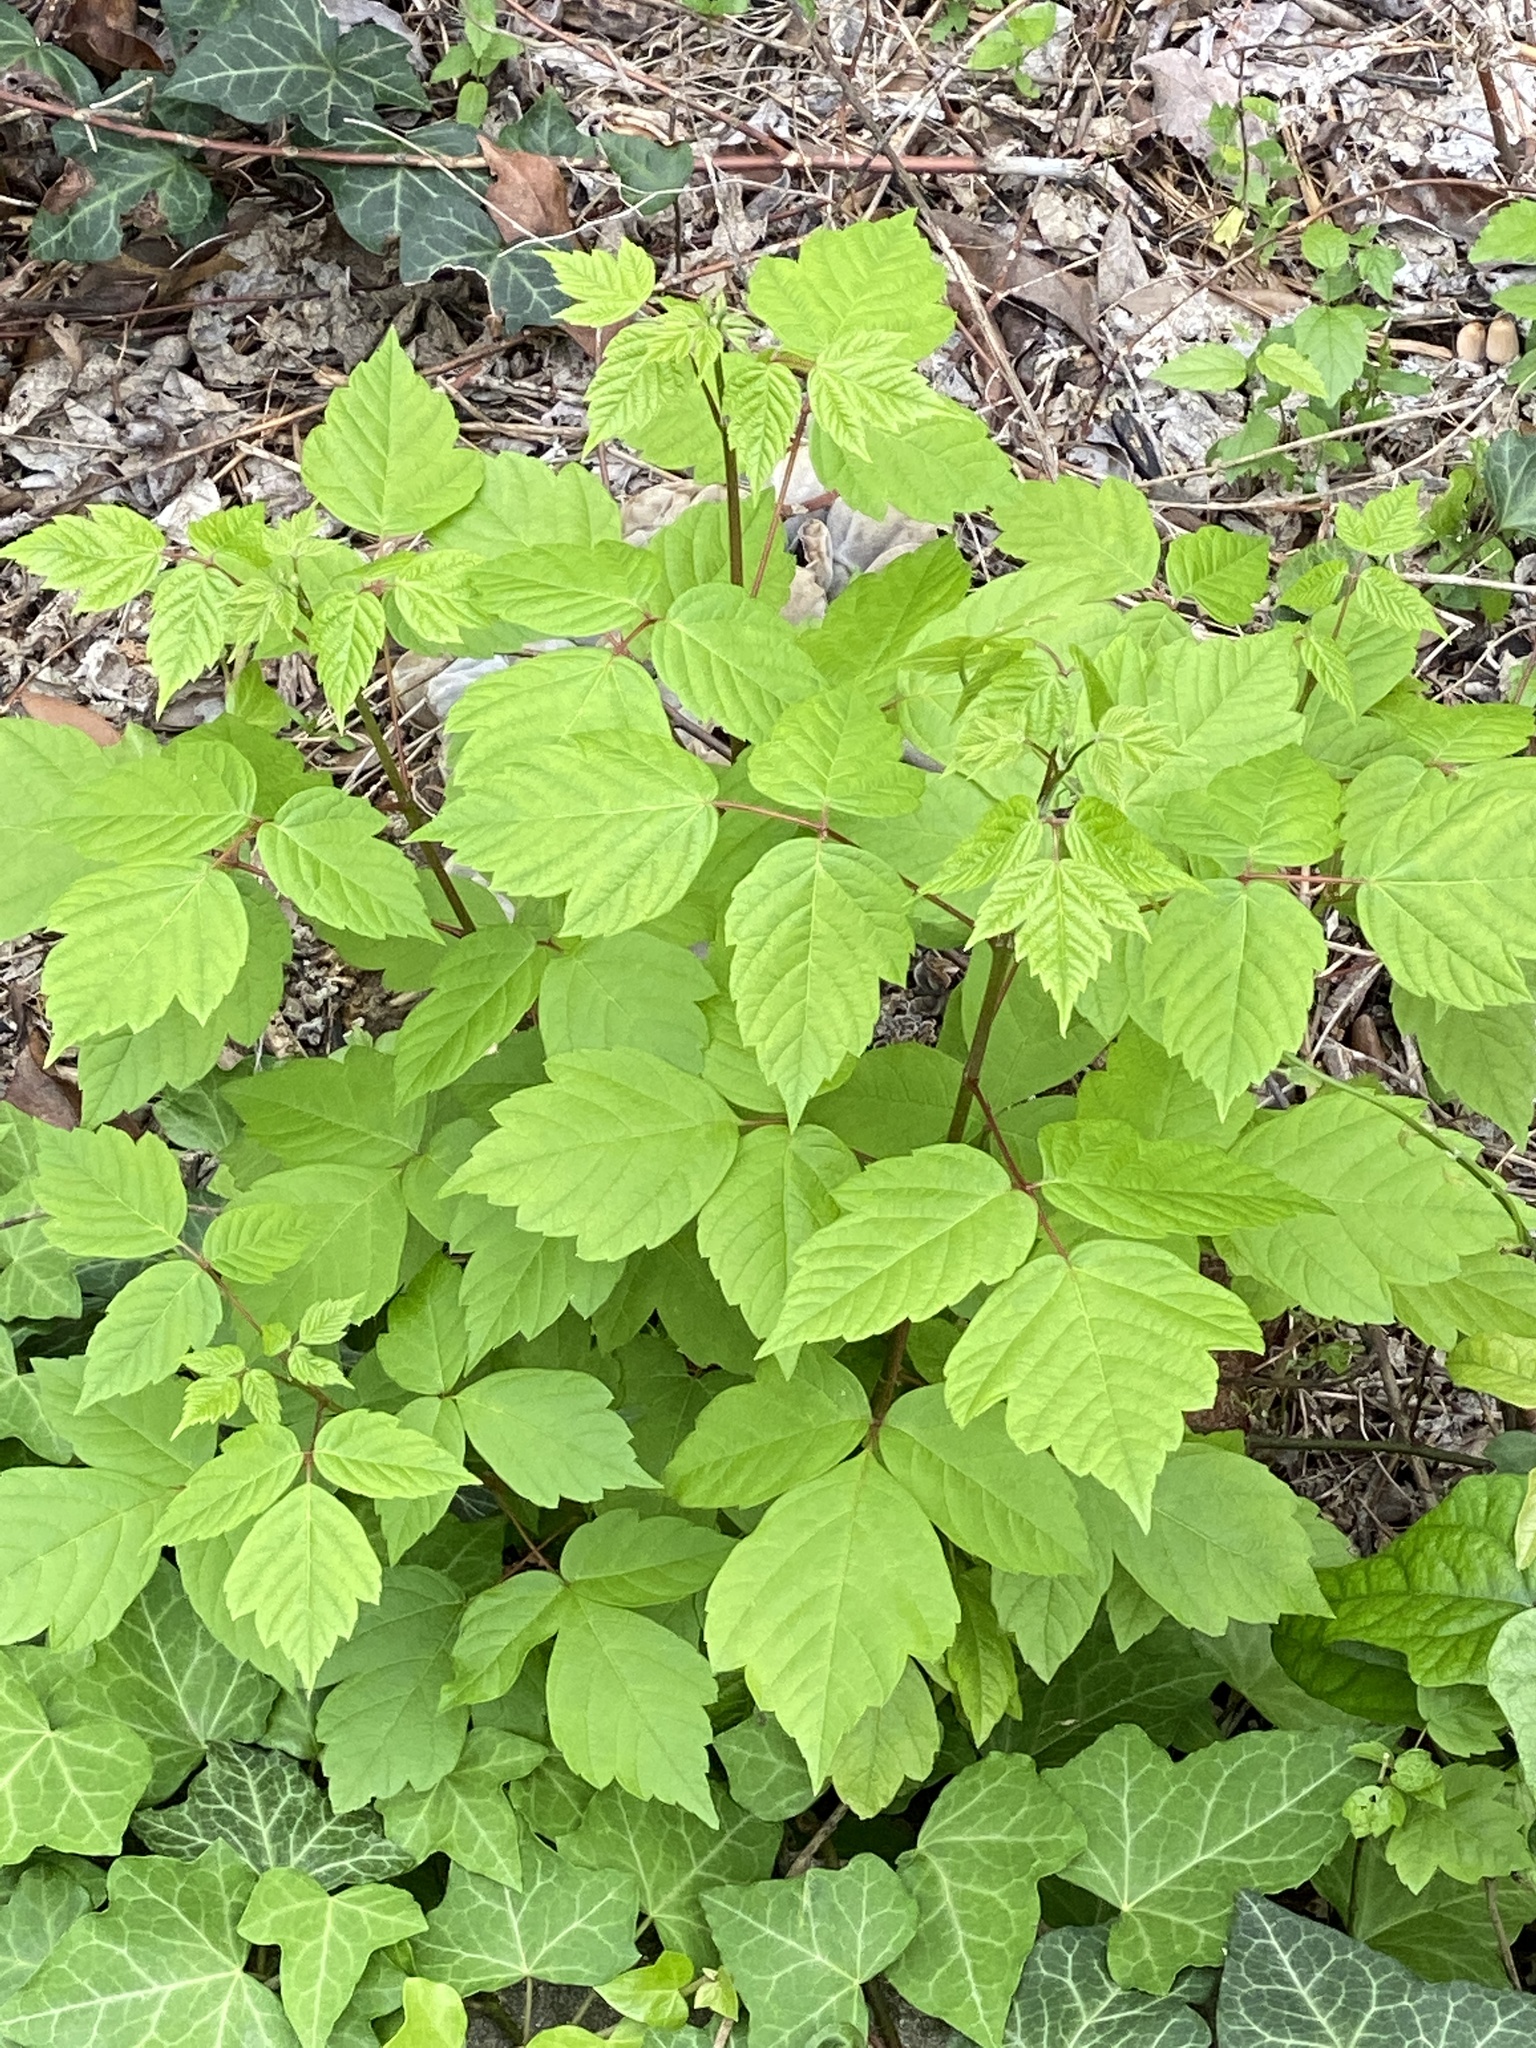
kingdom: Plantae
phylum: Tracheophyta
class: Magnoliopsida
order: Sapindales
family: Sapindaceae
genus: Acer
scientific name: Acer negundo
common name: Ashleaf maple
